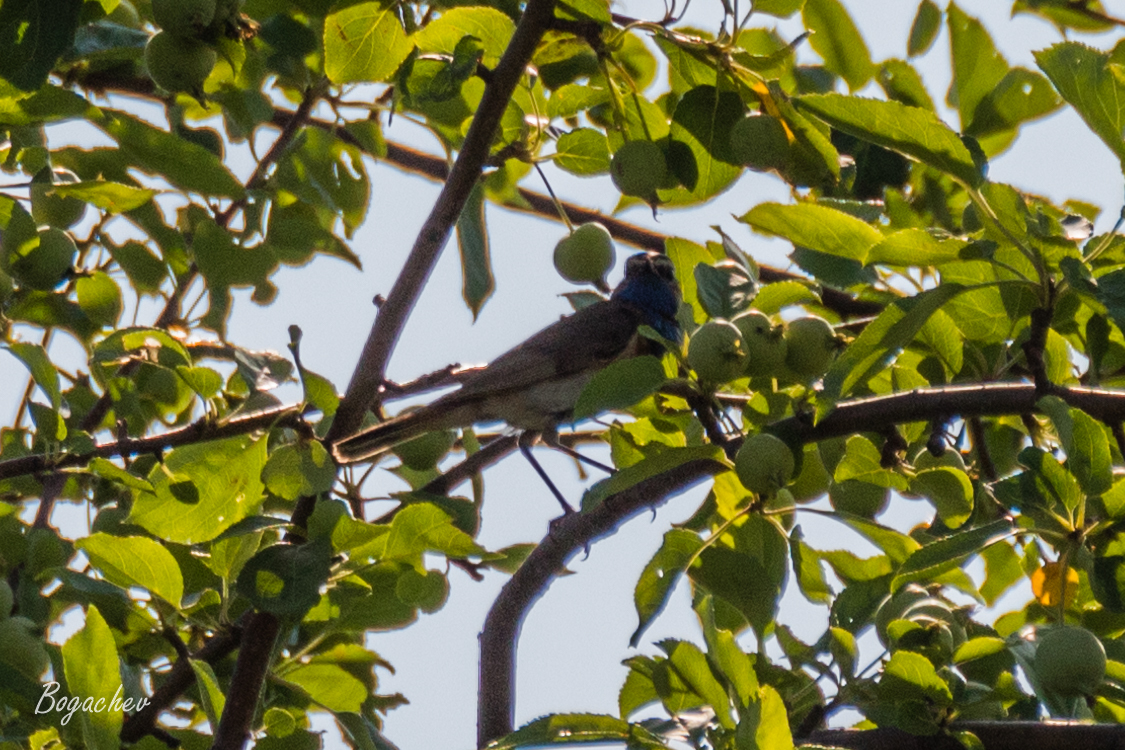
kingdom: Animalia
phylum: Chordata
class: Aves
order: Passeriformes
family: Muscicapidae
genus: Luscinia
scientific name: Luscinia svecica
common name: Bluethroat
